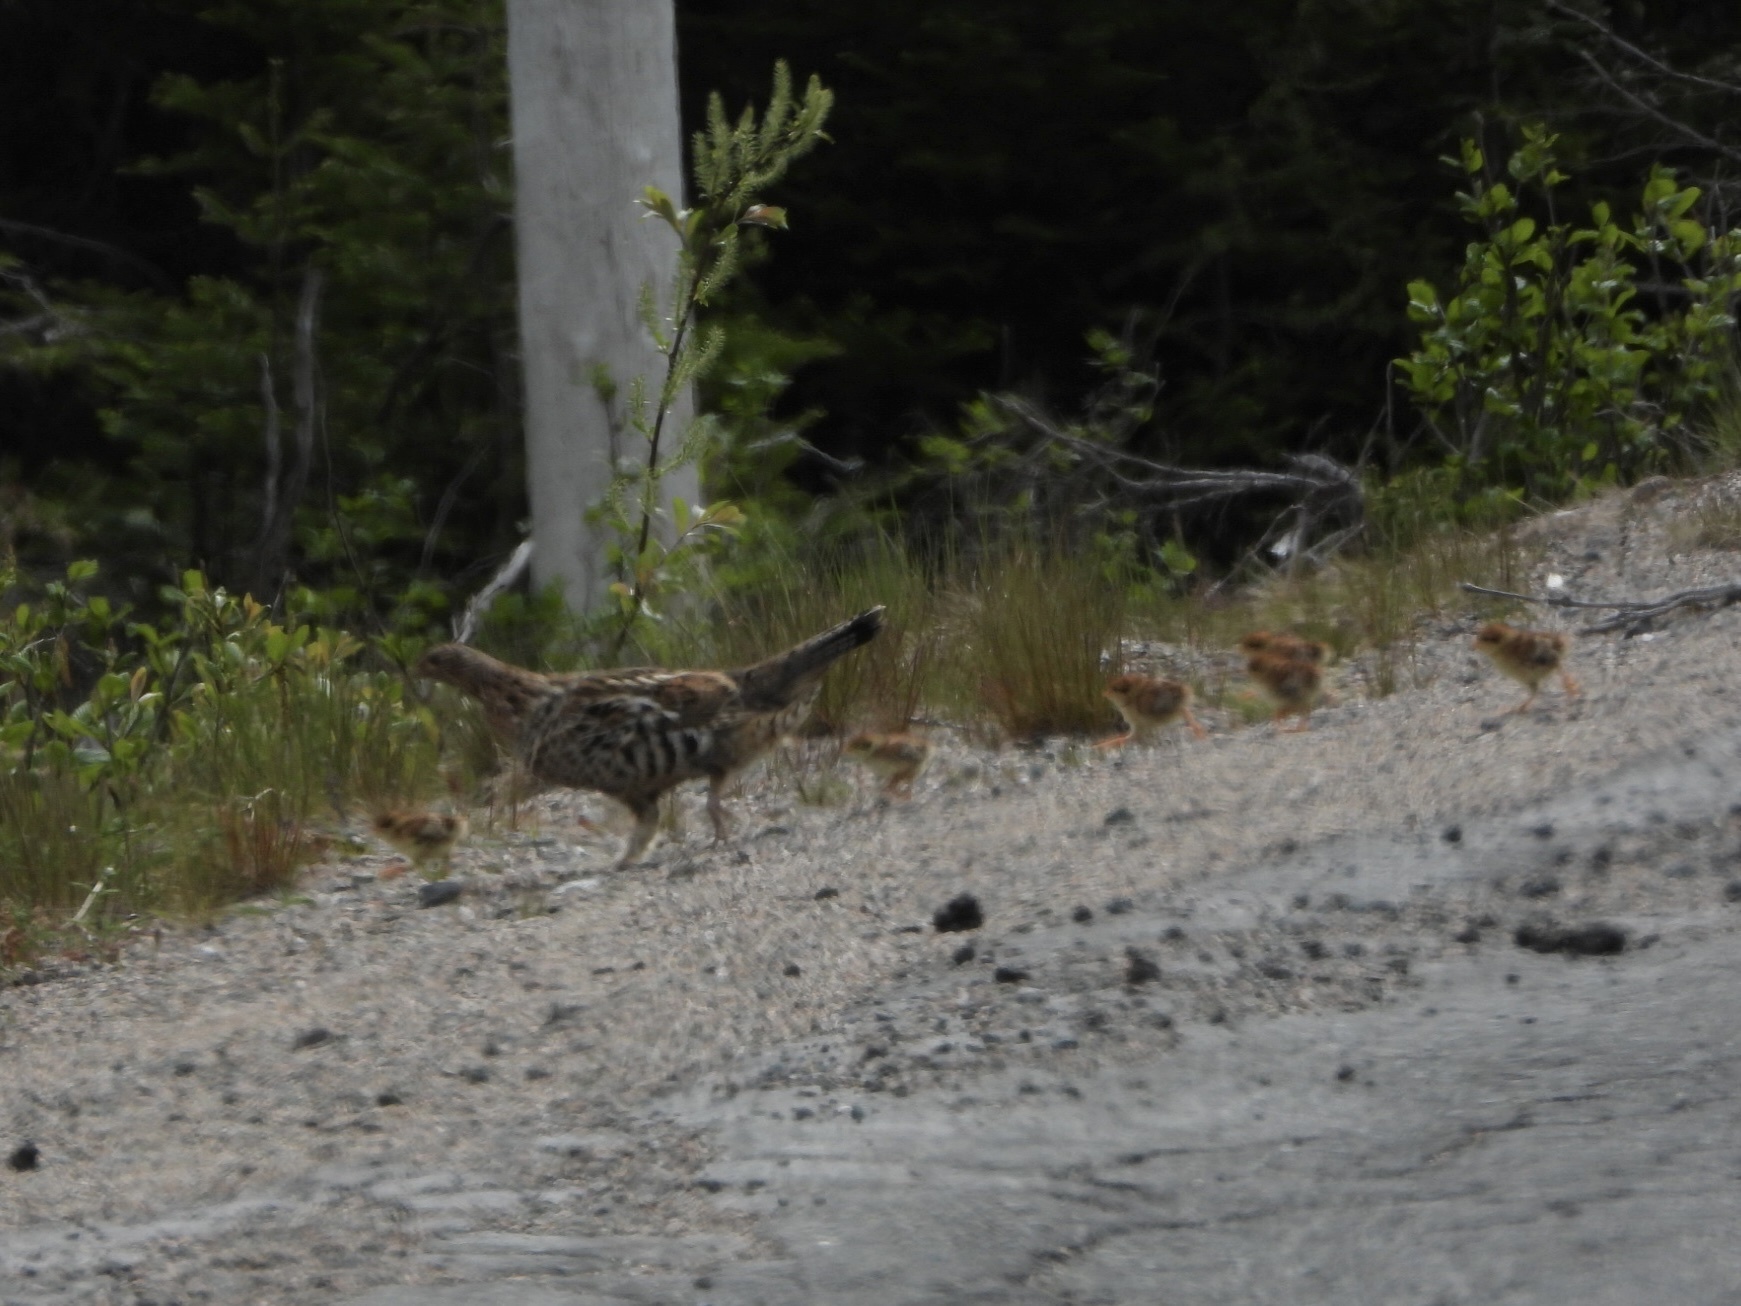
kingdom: Animalia
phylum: Chordata
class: Aves
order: Galliformes
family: Phasianidae
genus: Bonasa
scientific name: Bonasa umbellus
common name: Ruffed grouse
